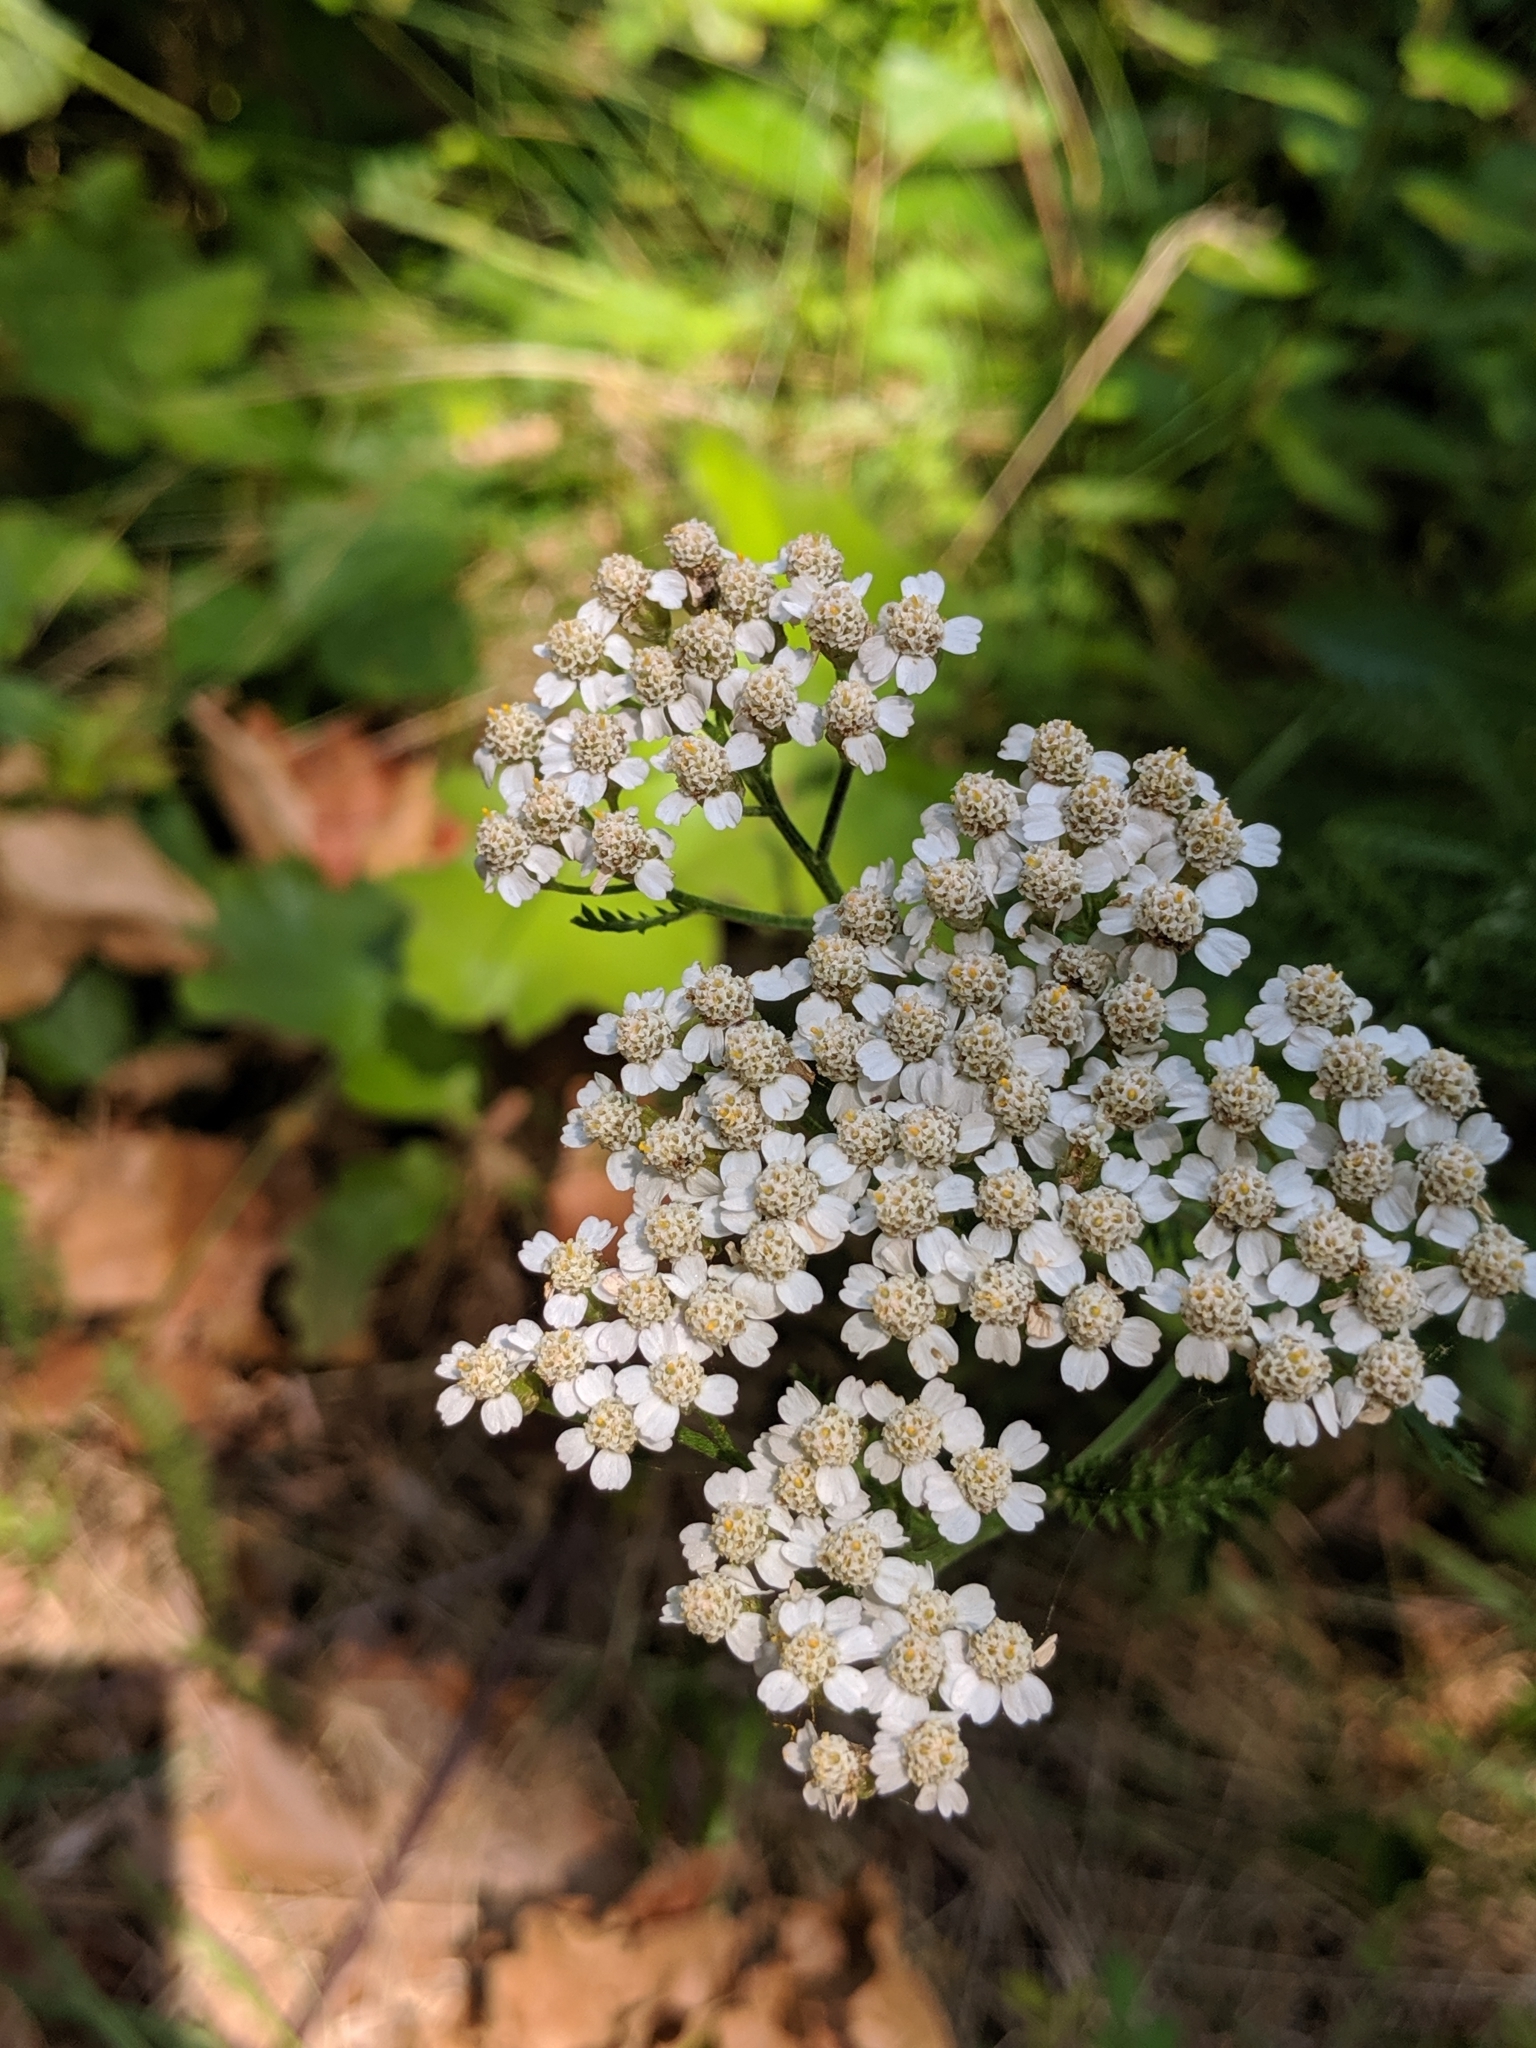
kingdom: Plantae
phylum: Tracheophyta
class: Magnoliopsida
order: Asterales
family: Asteraceae
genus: Achillea
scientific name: Achillea millefolium
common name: Yarrow
